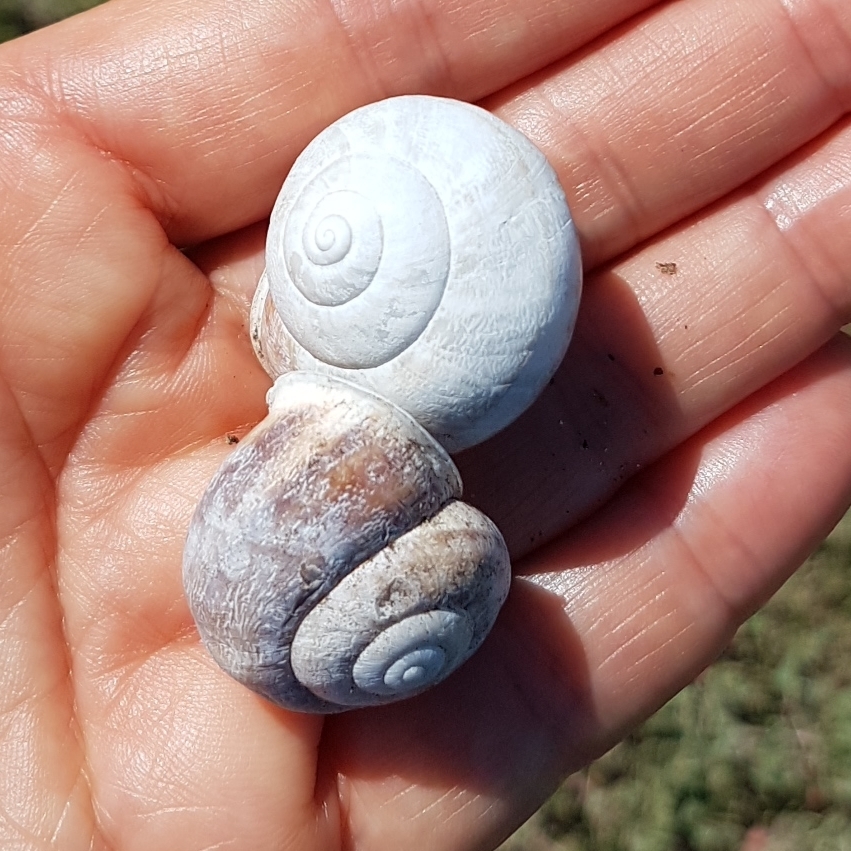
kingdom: Animalia
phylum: Mollusca
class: Gastropoda
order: Stylommatophora
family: Helicidae
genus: Eobania
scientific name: Eobania vermiculata
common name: Chocolateband snail
